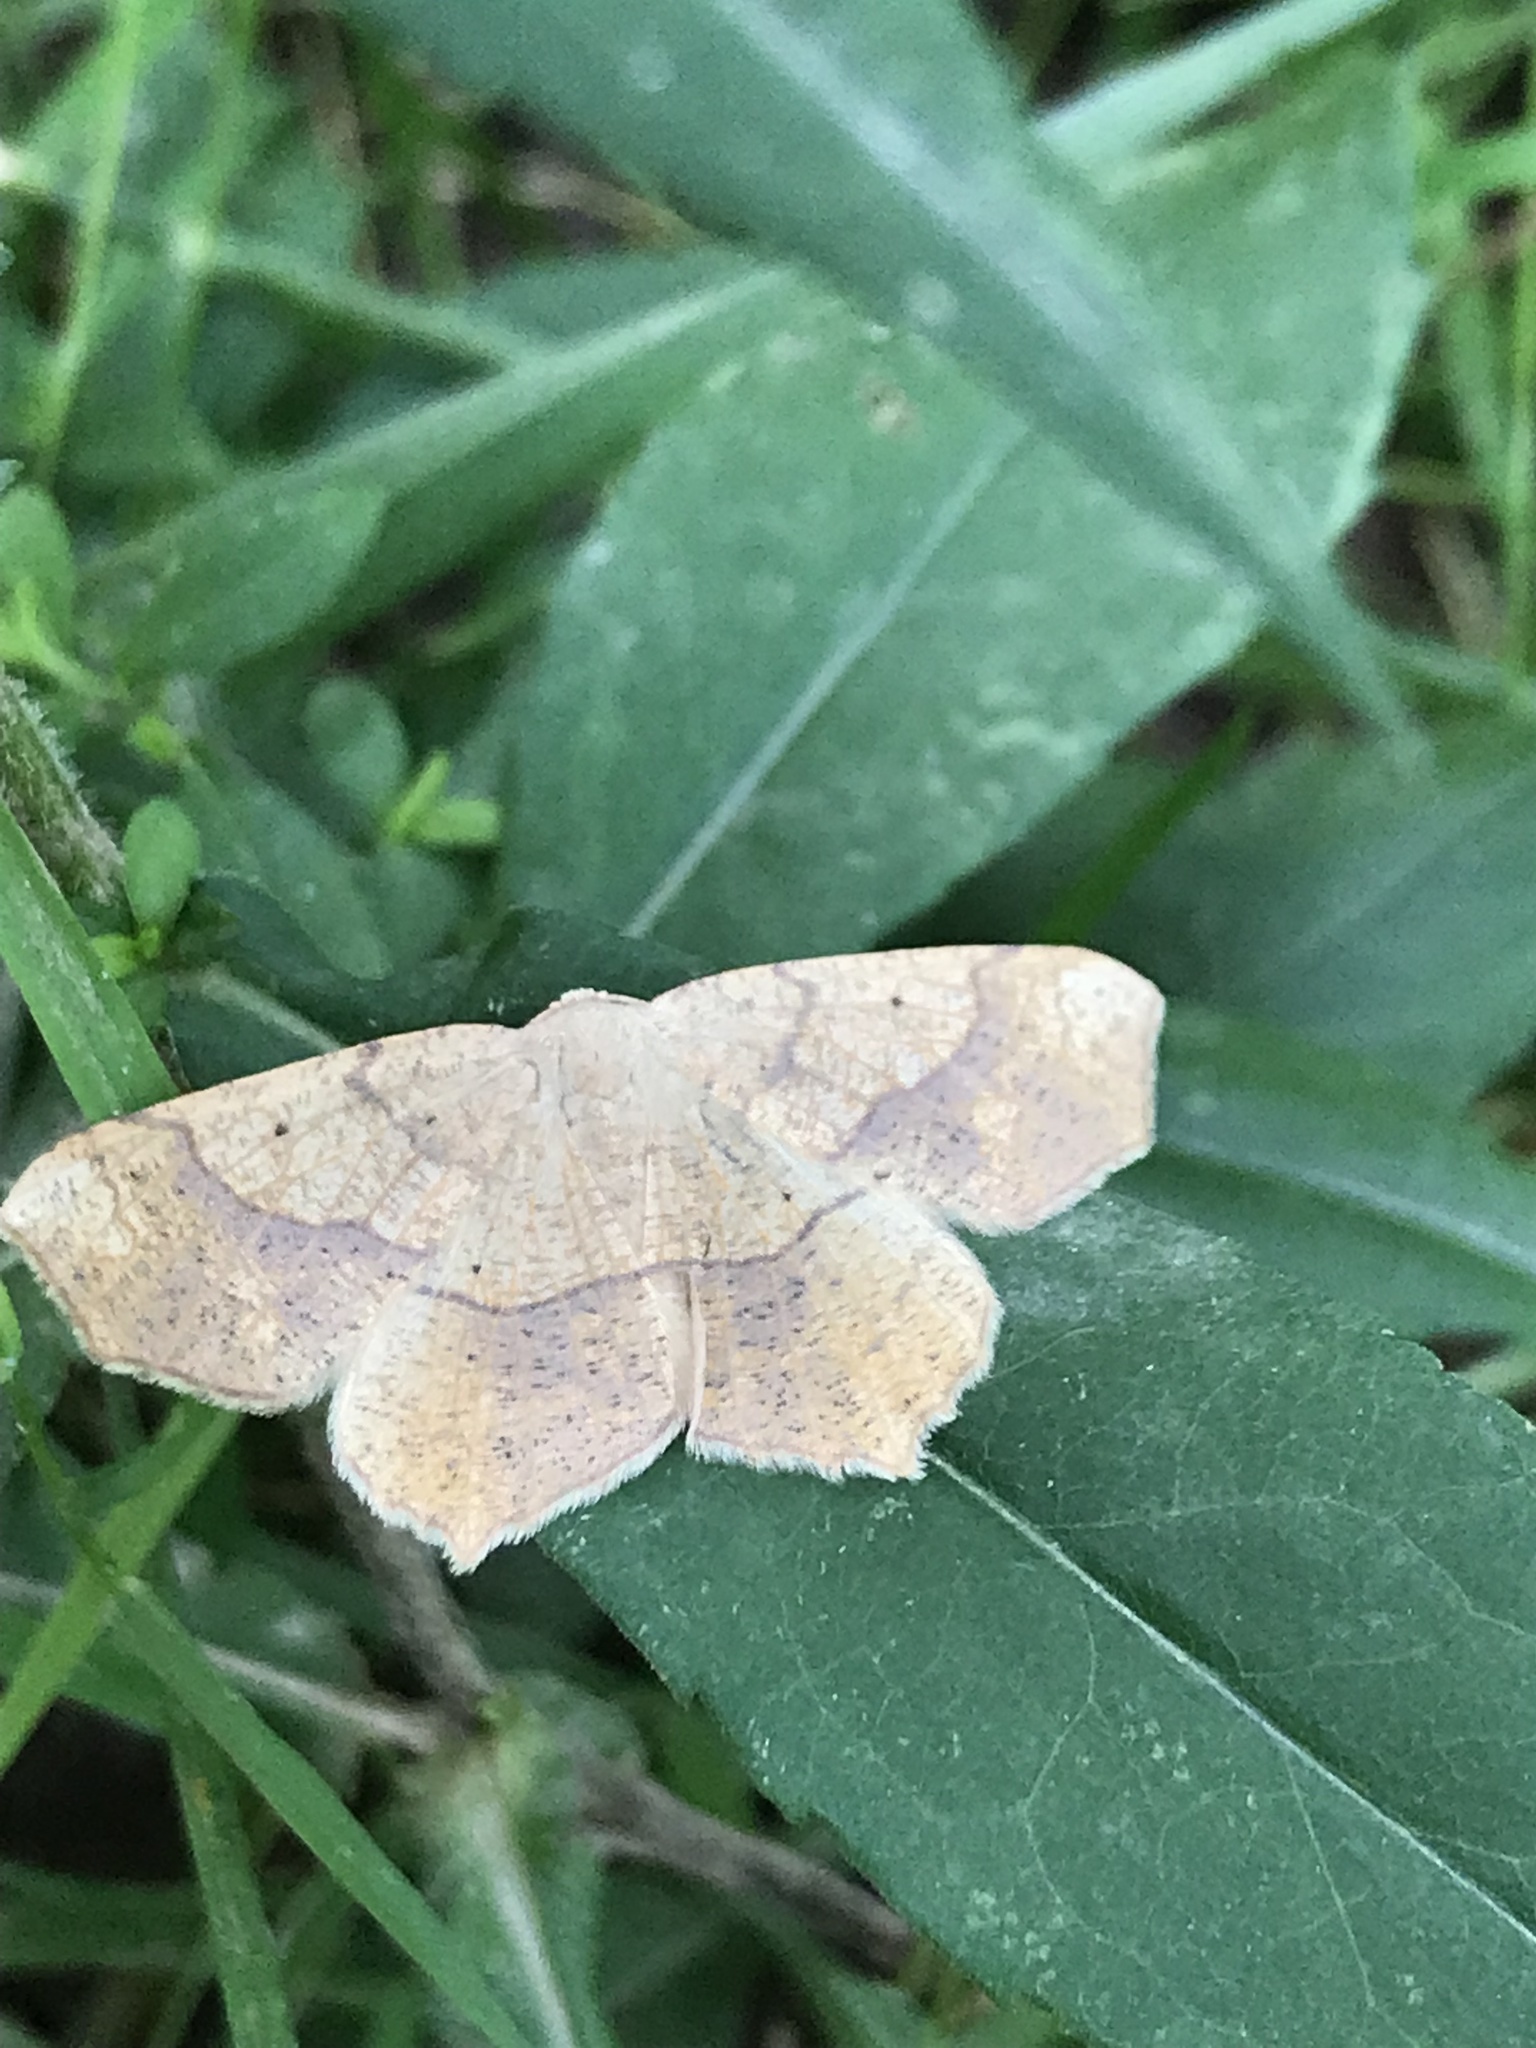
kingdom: Animalia
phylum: Arthropoda
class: Insecta
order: Lepidoptera
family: Geometridae
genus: Besma
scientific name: Besma quercivoraria
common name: Oak besma
